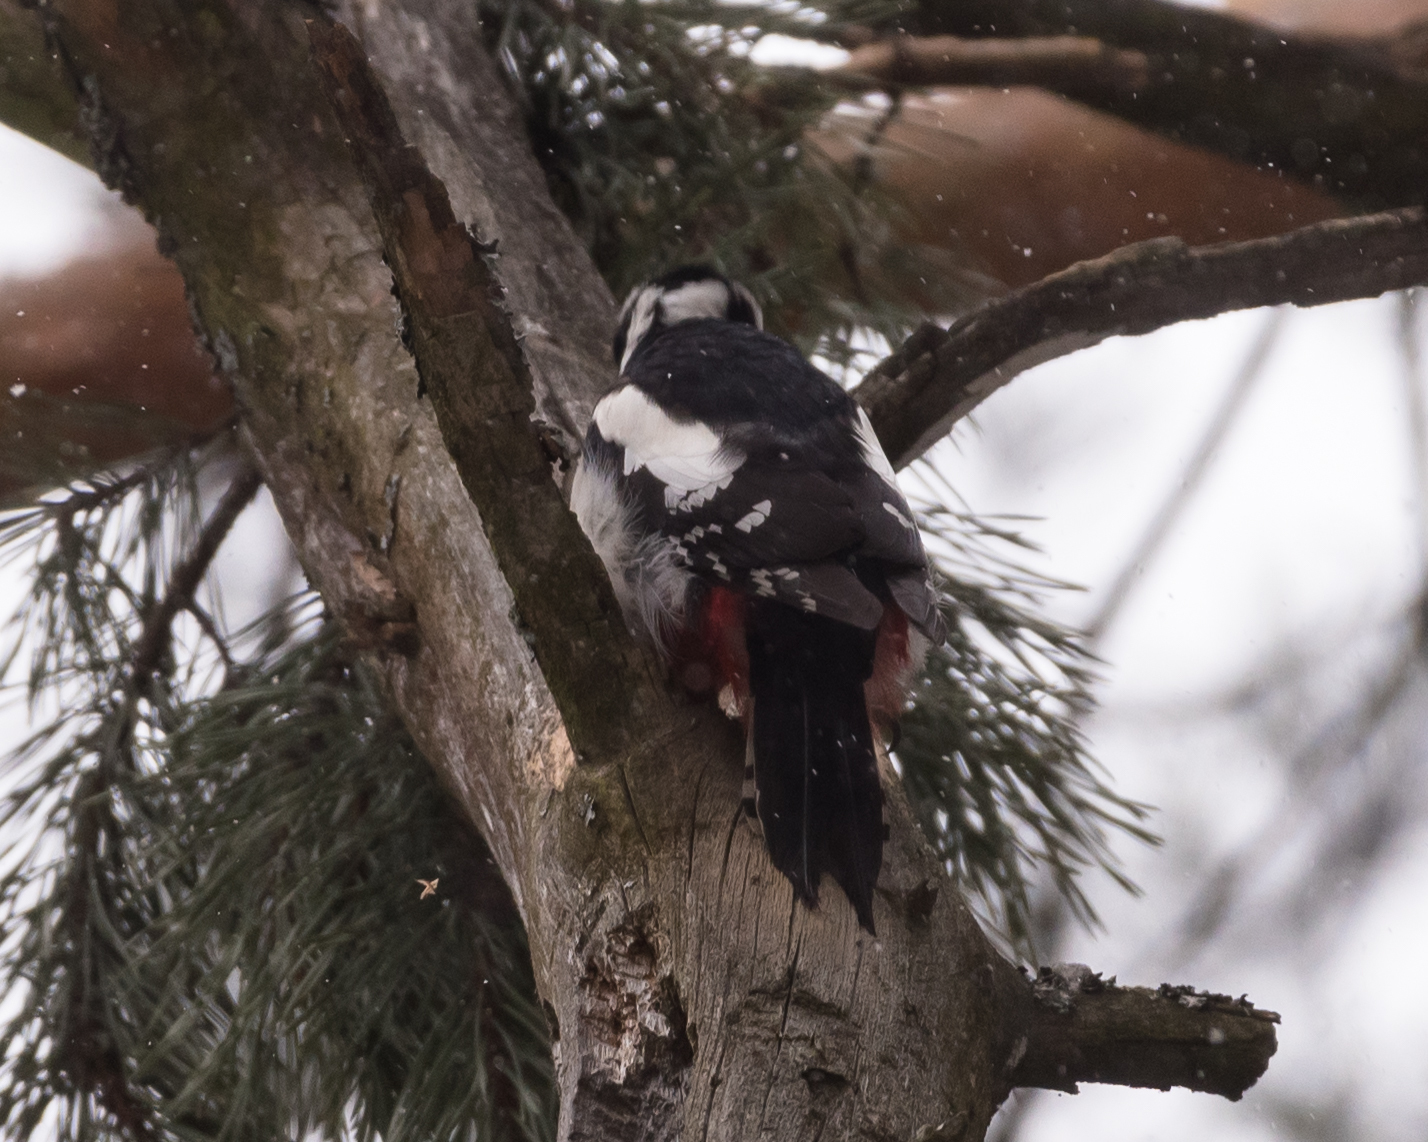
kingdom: Animalia
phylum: Chordata
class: Aves
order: Piciformes
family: Picidae
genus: Dendrocopos
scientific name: Dendrocopos major
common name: Great spotted woodpecker
